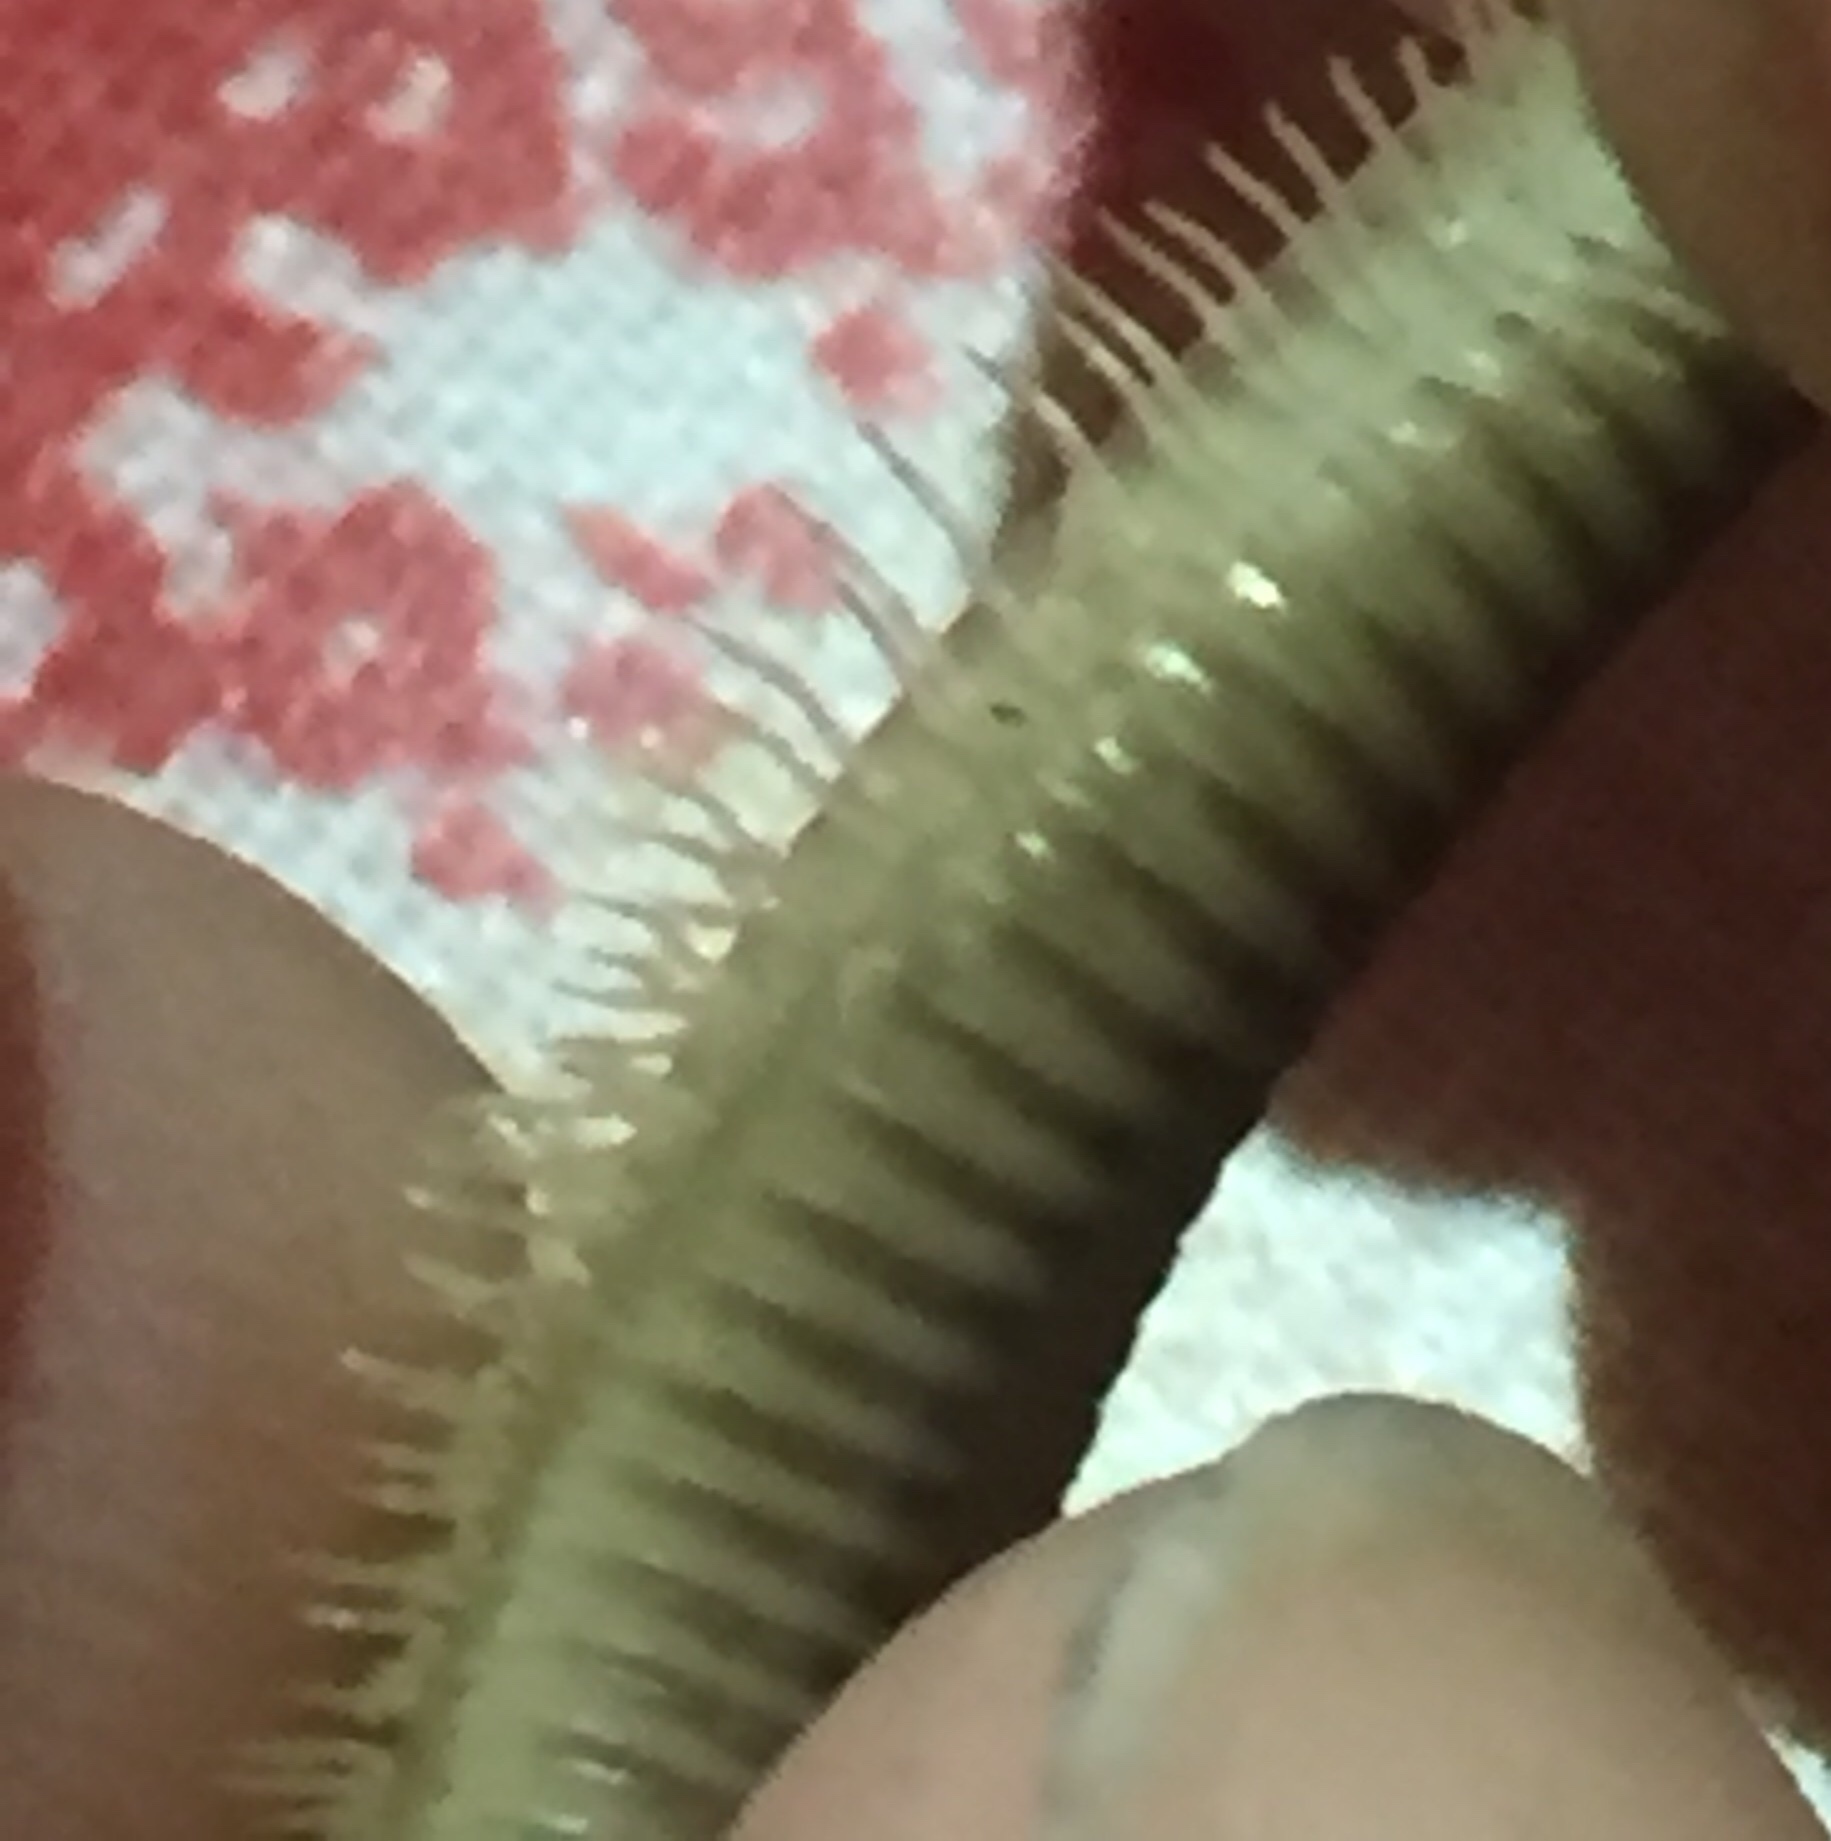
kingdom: Animalia
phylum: Arthropoda
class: Diplopoda
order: Julida
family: Julidae
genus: Pachyiulus
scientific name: Pachyiulus flavipes
